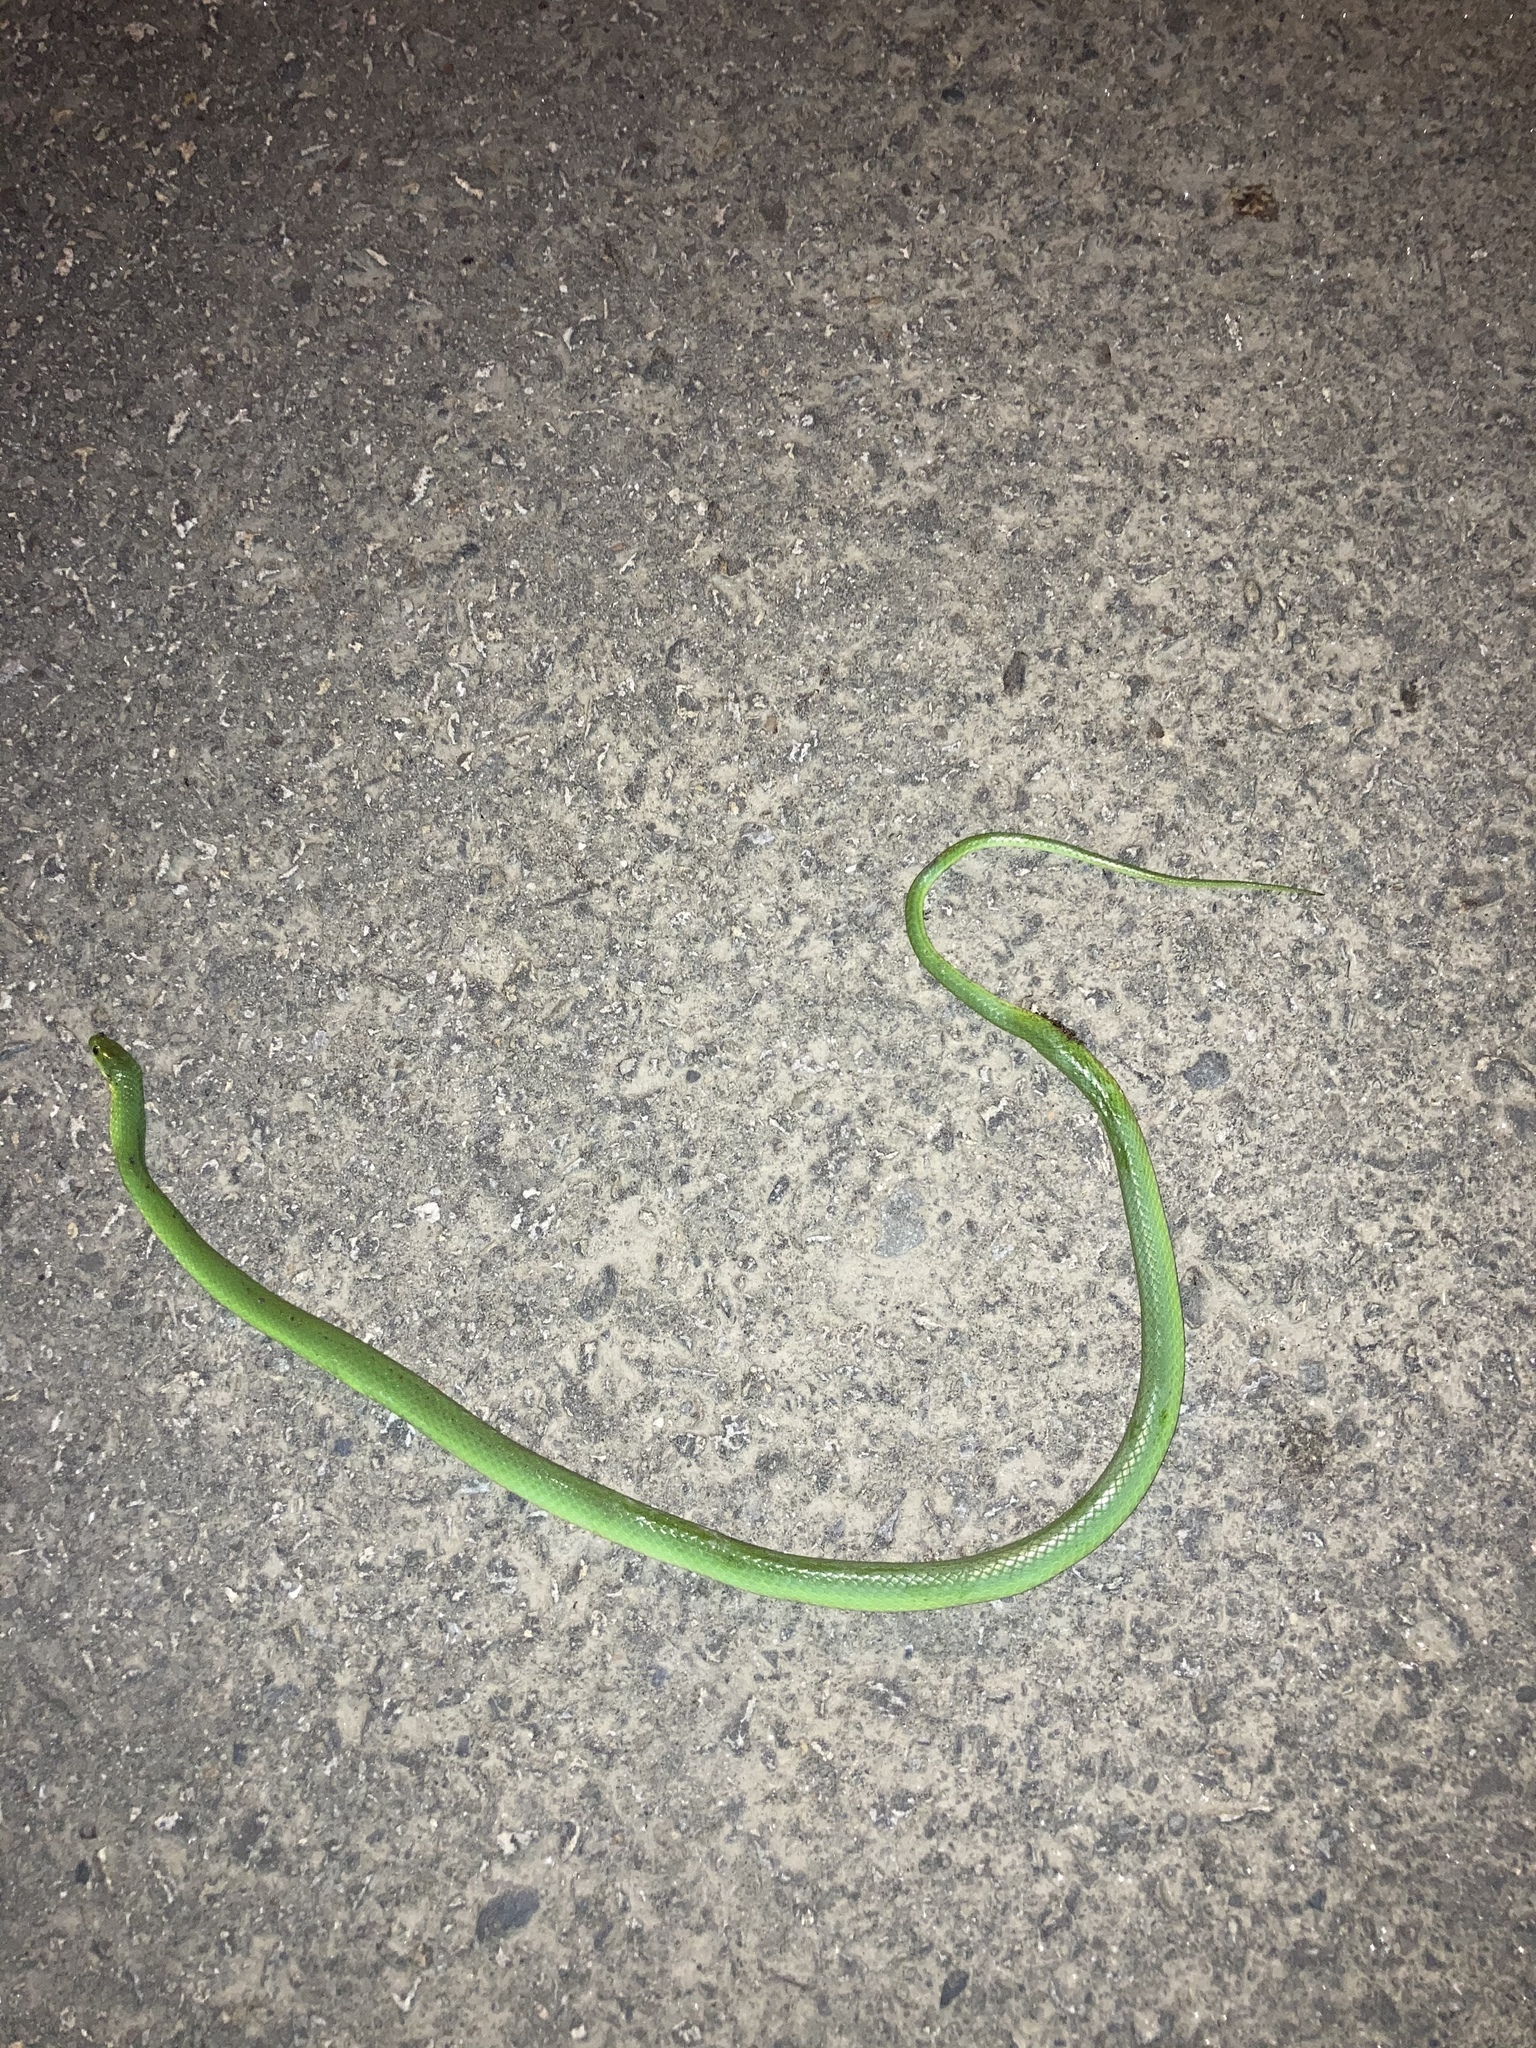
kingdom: Animalia
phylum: Chordata
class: Squamata
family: Colubridae
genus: Ptyas
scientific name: Ptyas major
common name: Chinese green snake
